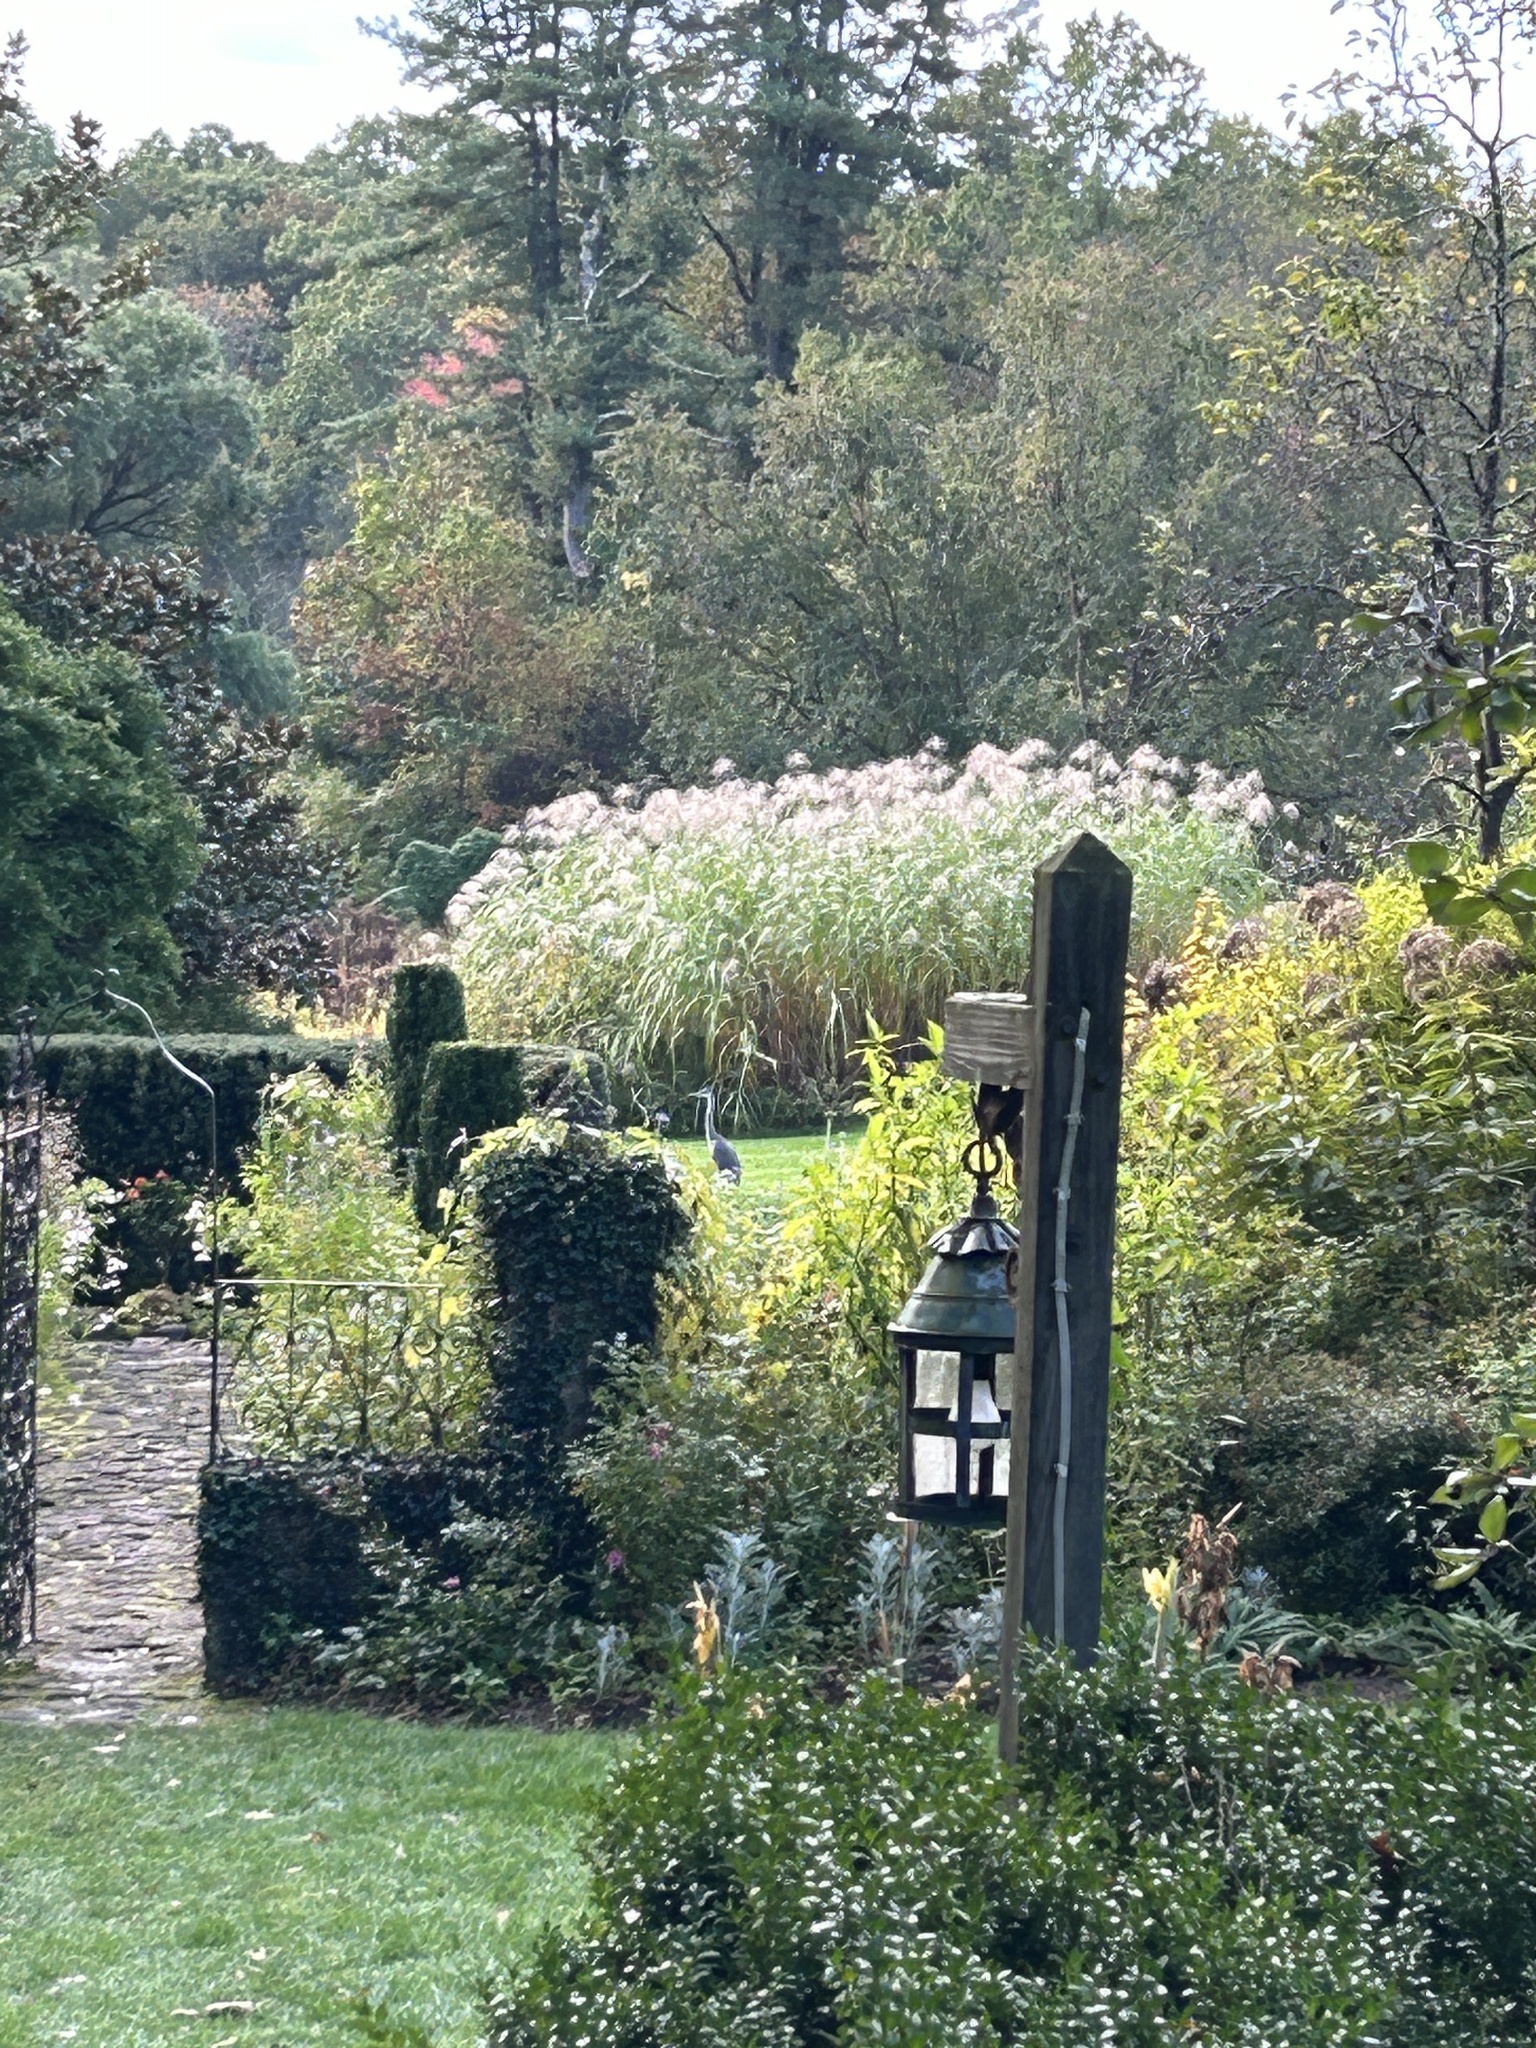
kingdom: Animalia
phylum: Chordata
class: Aves
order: Pelecaniformes
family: Ardeidae
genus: Ardea
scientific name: Ardea herodias
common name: Great blue heron
